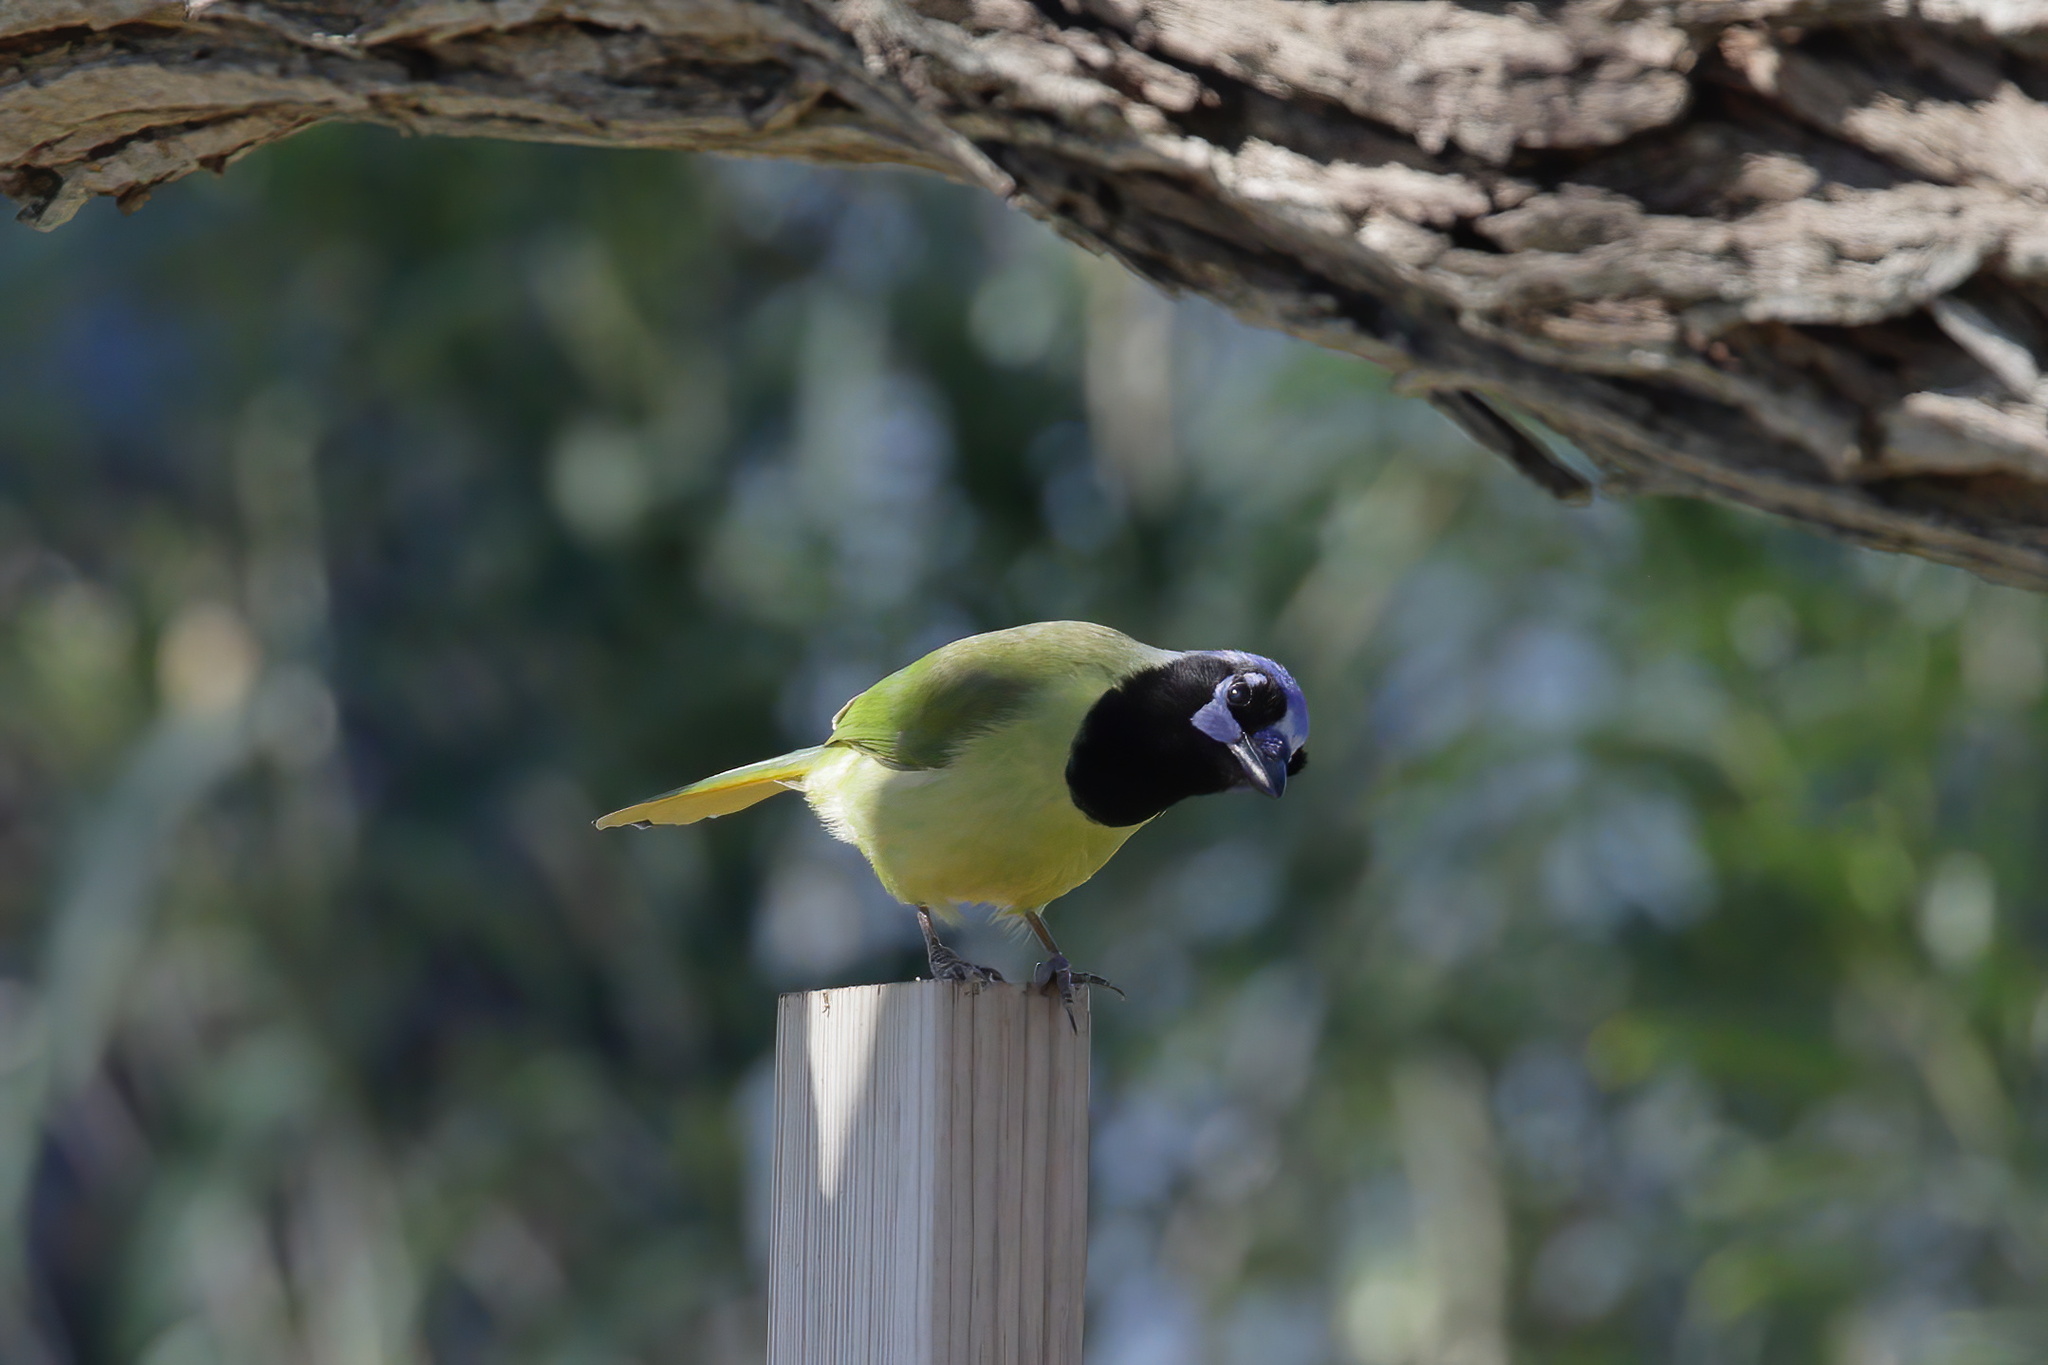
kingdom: Animalia
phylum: Chordata
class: Aves
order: Passeriformes
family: Corvidae
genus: Cyanocorax
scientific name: Cyanocorax yncas
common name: Green jay
